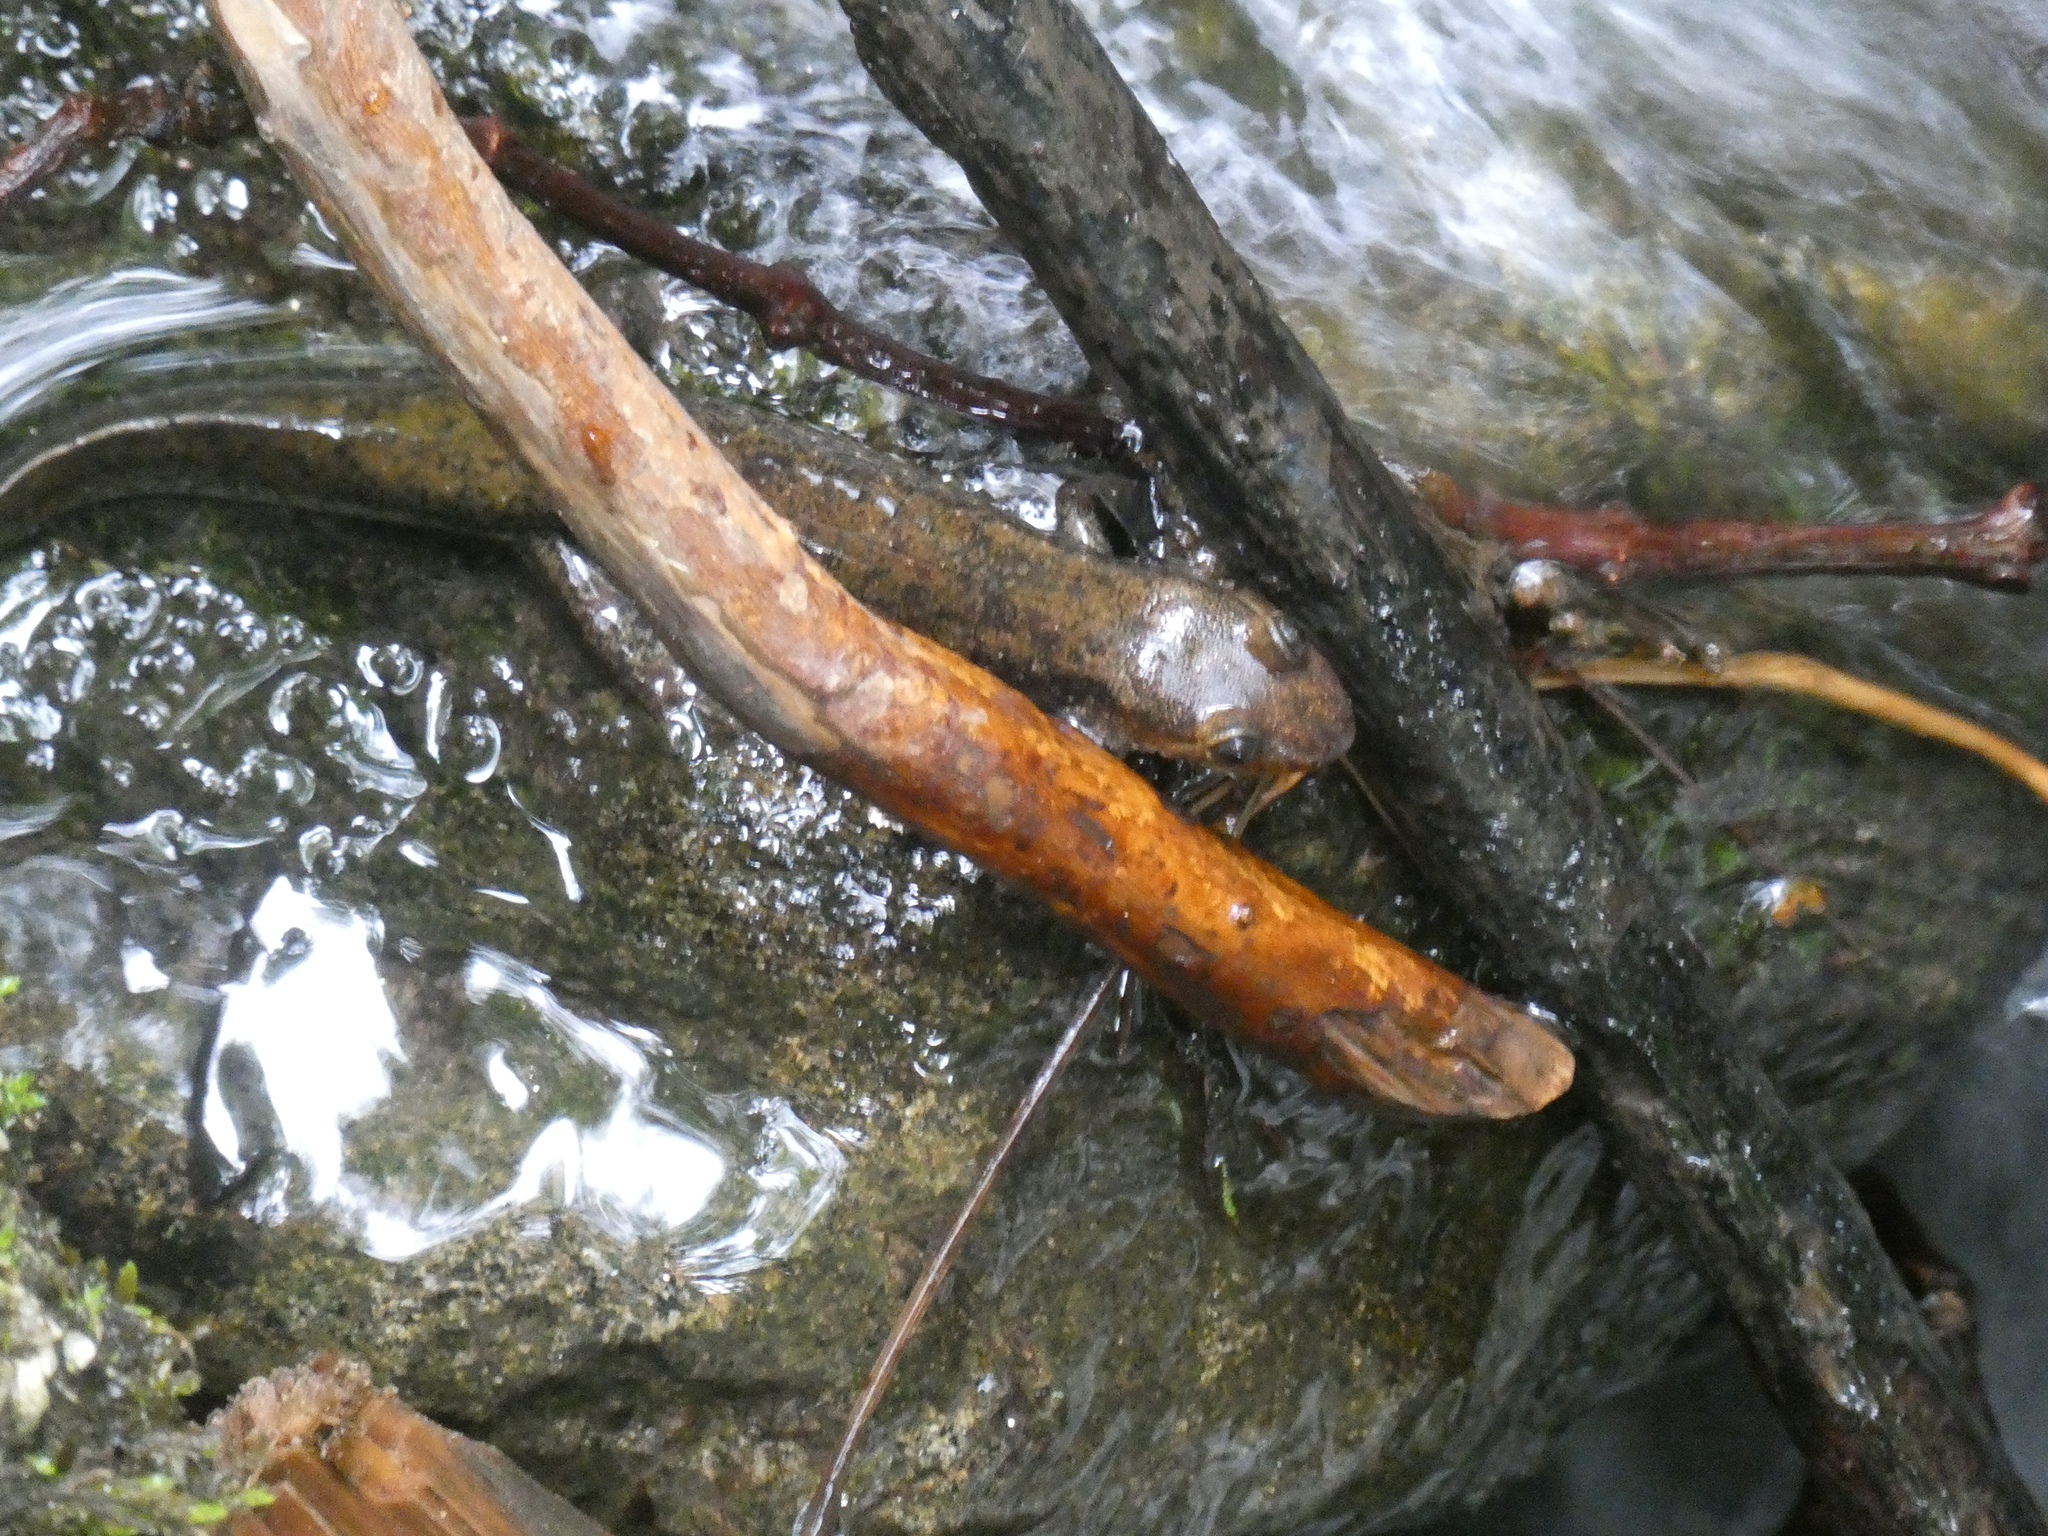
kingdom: Animalia
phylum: Chordata
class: Amphibia
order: Caudata
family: Plethodontidae
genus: Desmognathus
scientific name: Desmognathus
